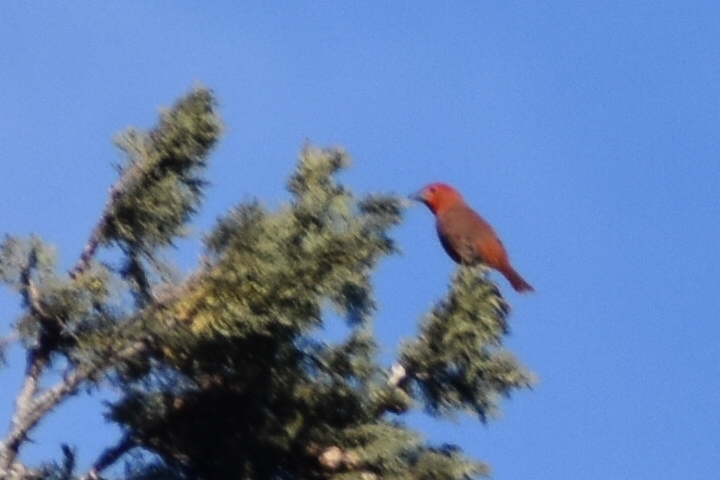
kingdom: Animalia
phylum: Chordata
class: Aves
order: Passeriformes
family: Cardinalidae
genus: Piranga
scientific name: Piranga flava
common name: Red tanager
